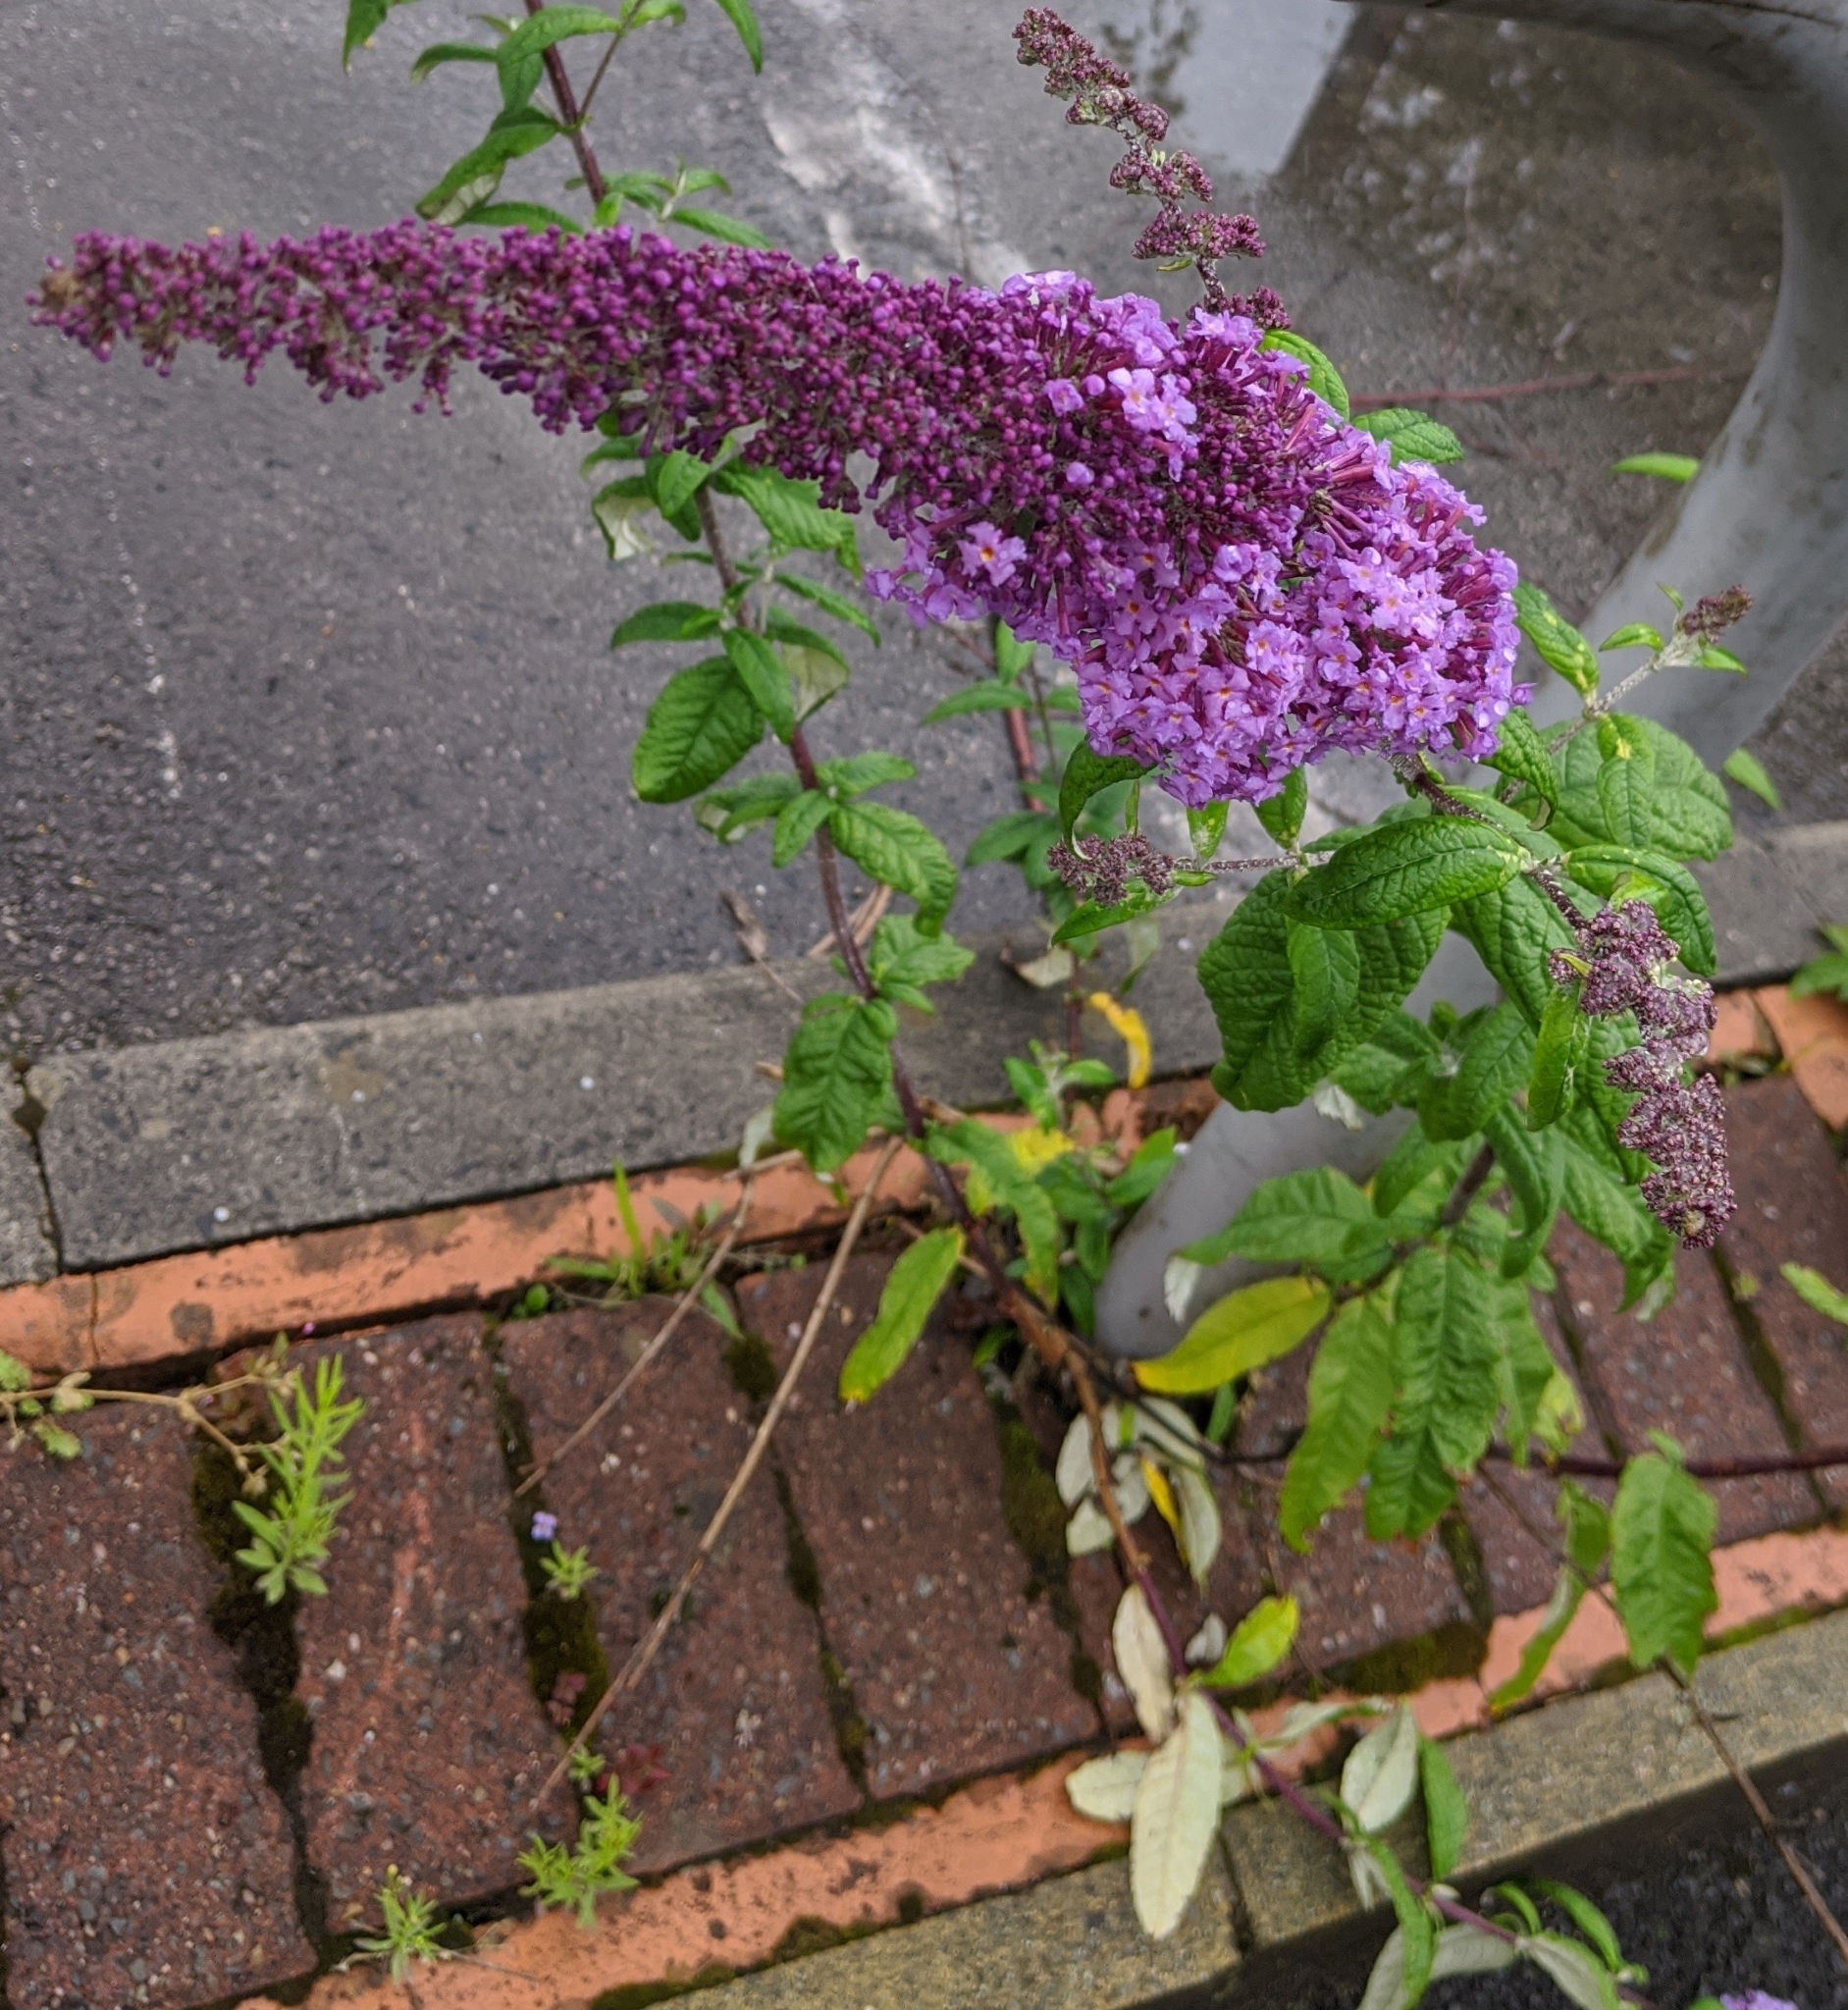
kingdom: Plantae
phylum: Tracheophyta
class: Magnoliopsida
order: Lamiales
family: Scrophulariaceae
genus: Buddleja
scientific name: Buddleja davidii
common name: Butterfly-bush
